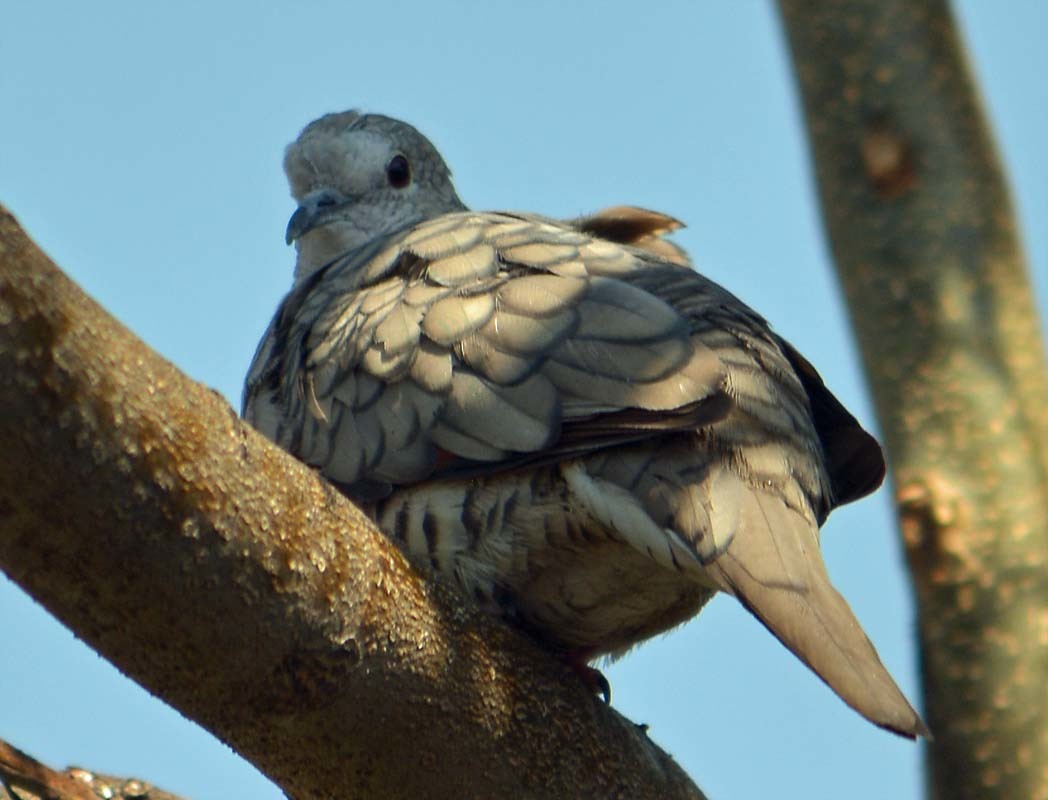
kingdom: Animalia
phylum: Chordata
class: Aves
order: Columbiformes
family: Columbidae
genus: Columbina
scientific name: Columbina inca
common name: Inca dove
